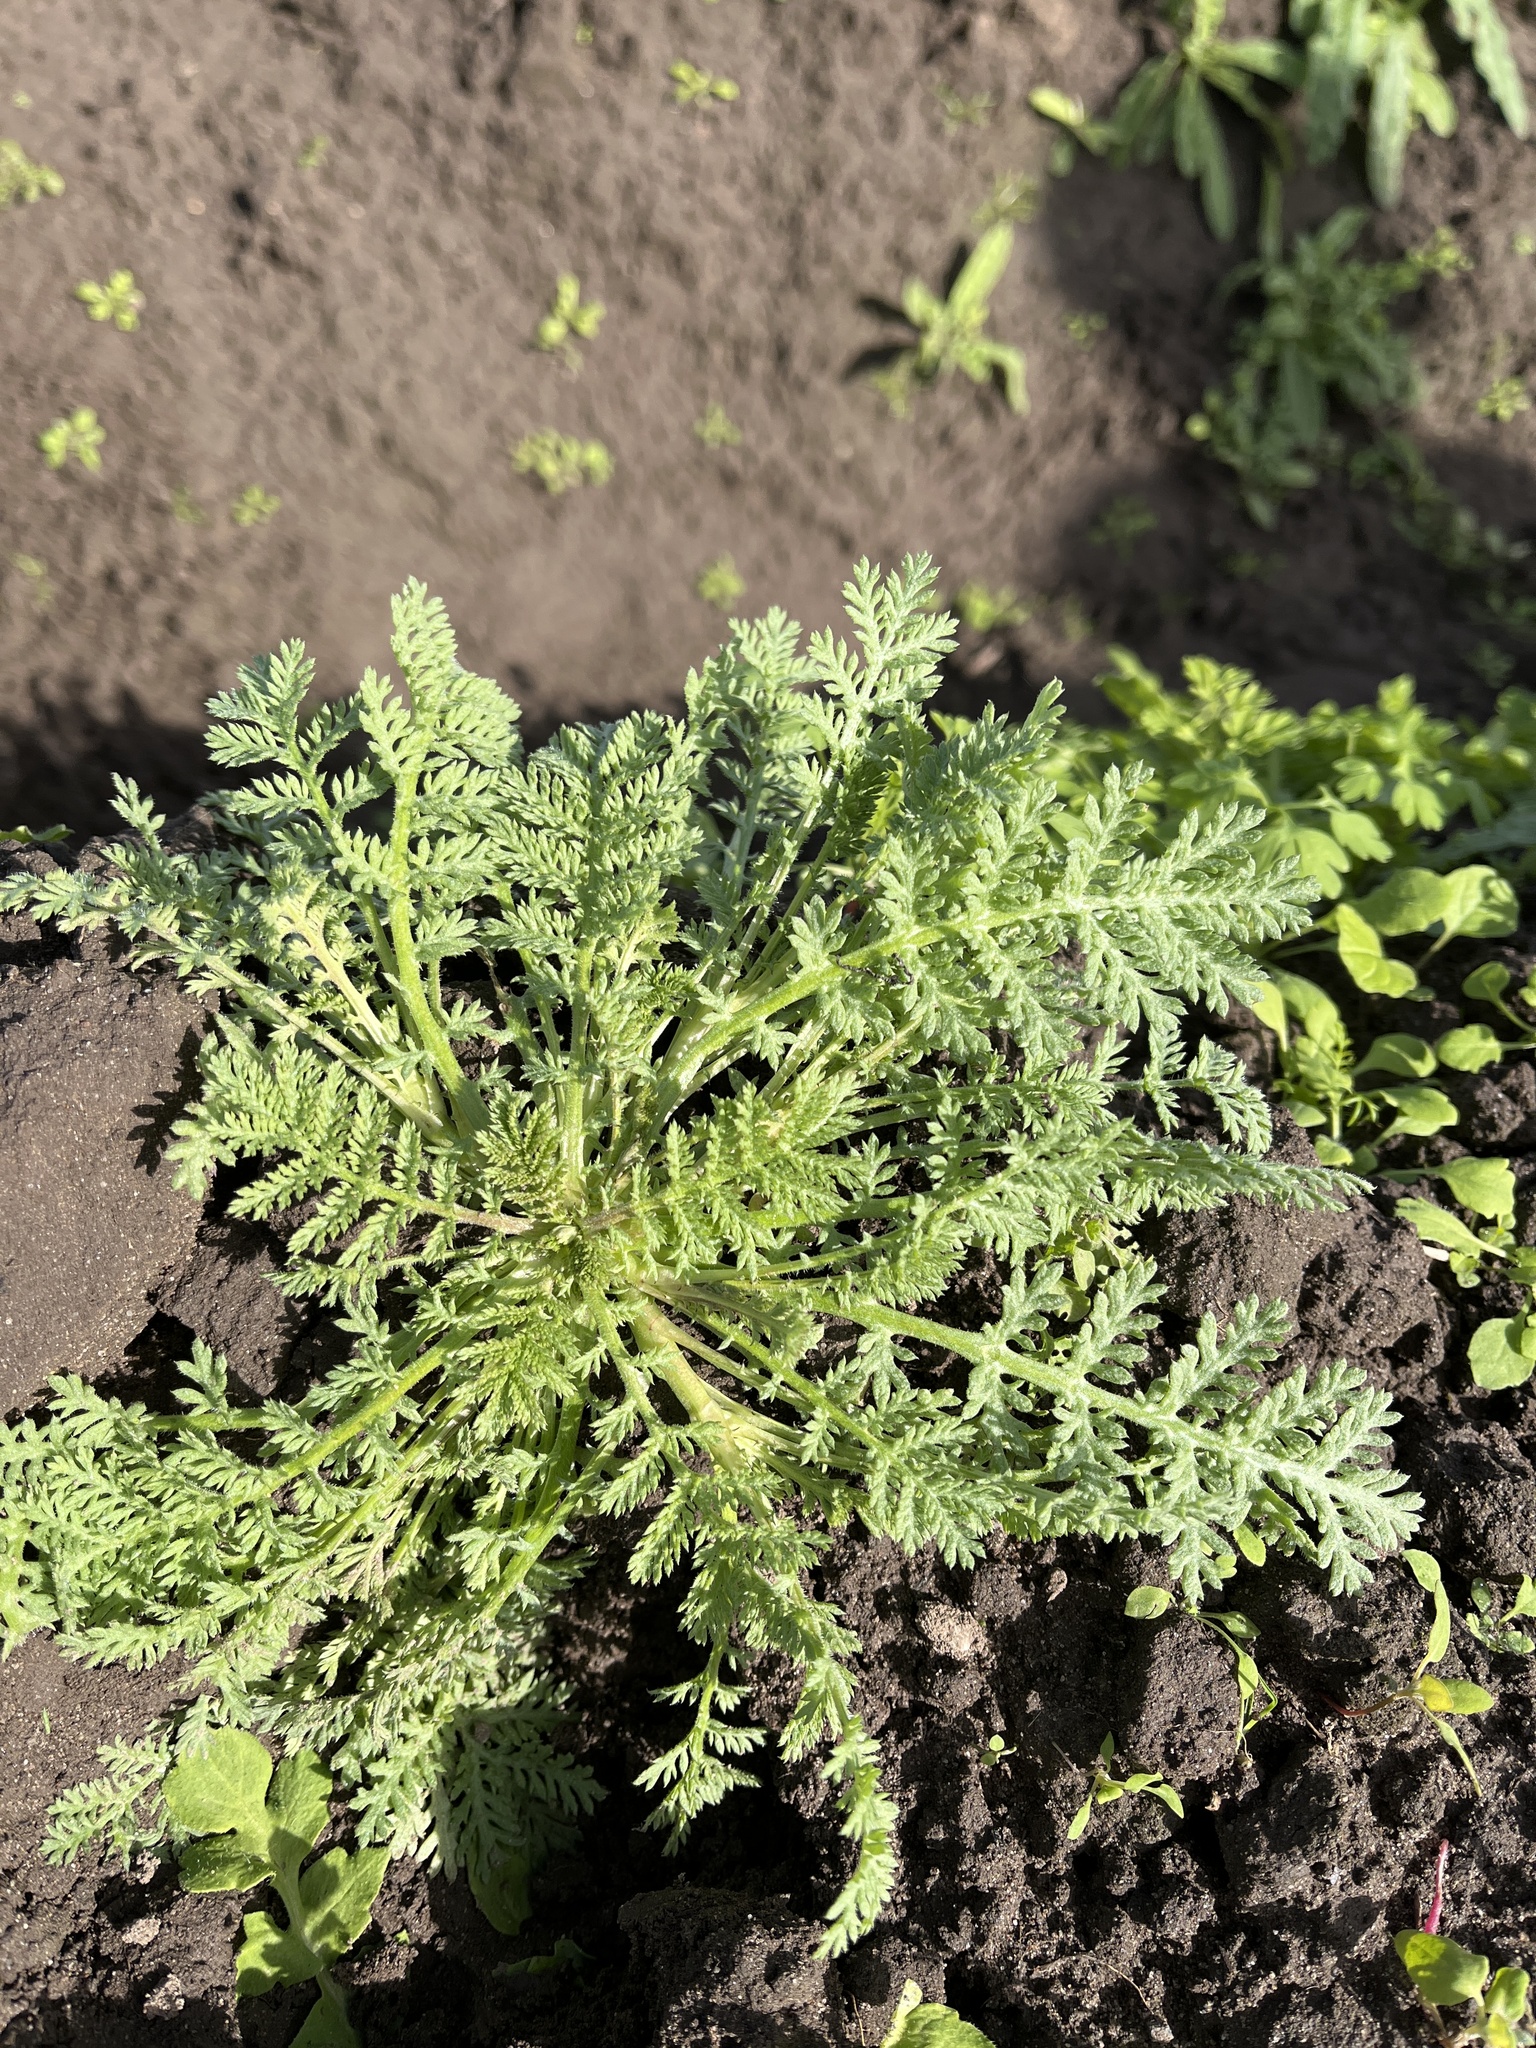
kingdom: Plantae
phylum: Tracheophyta
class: Magnoliopsida
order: Boraginales
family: Hydrophyllaceae
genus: Phacelia
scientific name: Phacelia tanacetifolia
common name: Phacelia
